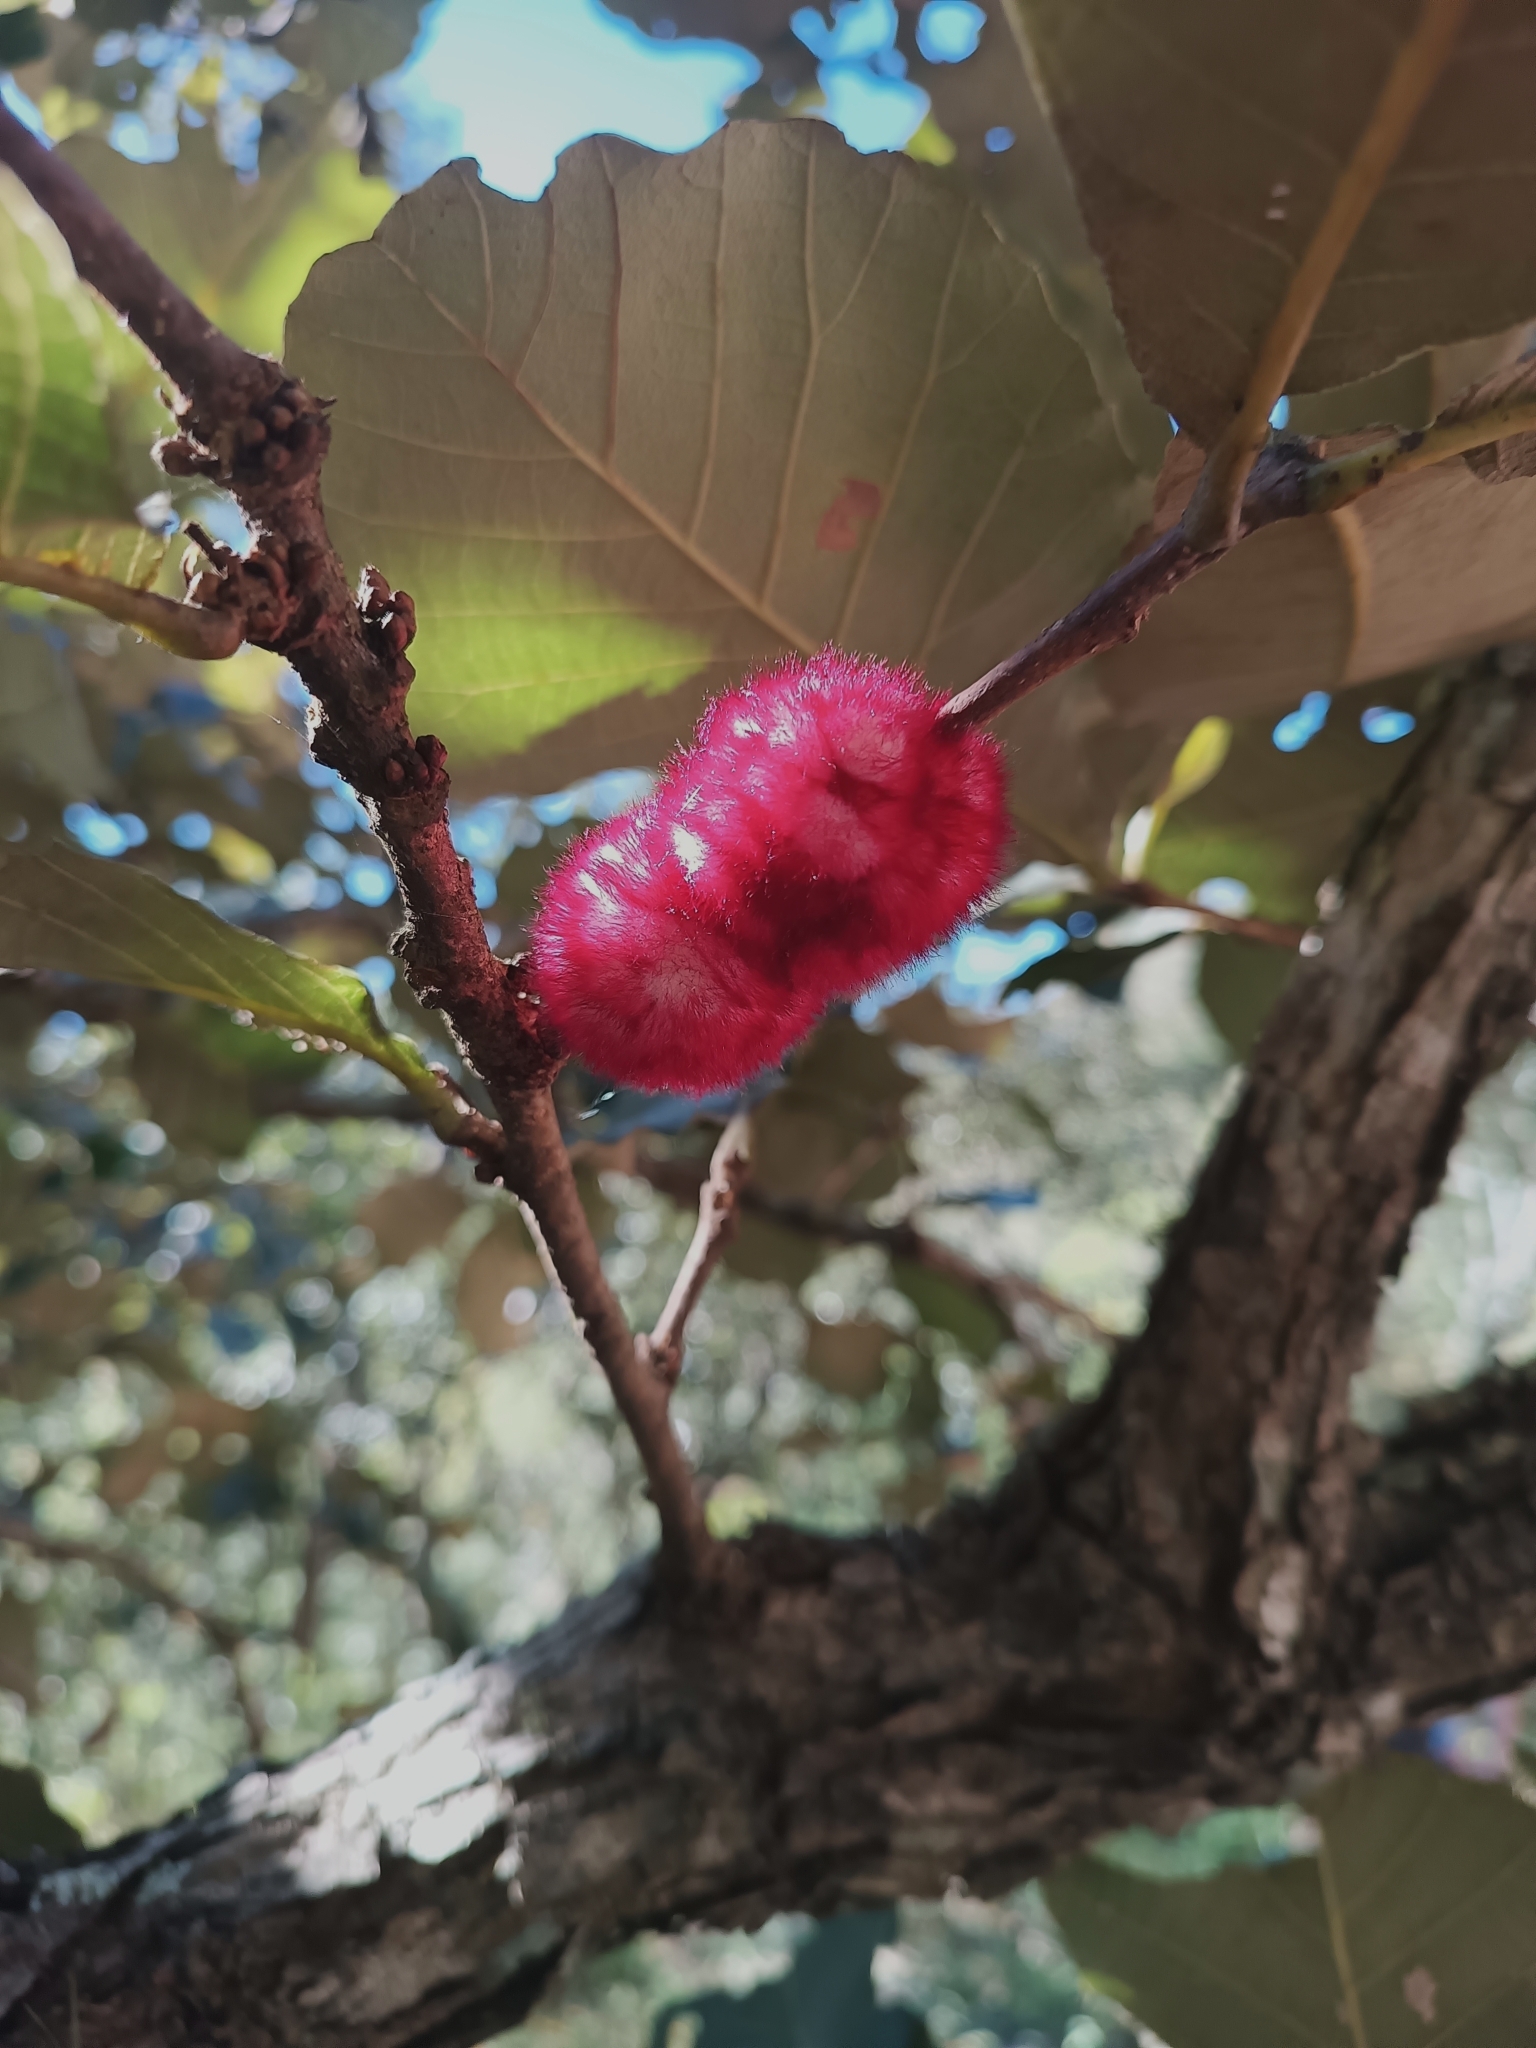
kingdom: Animalia
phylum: Arthropoda
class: Insecta
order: Hymenoptera
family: Cynipidae
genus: Striatoandricus
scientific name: Striatoandricus furnessae
